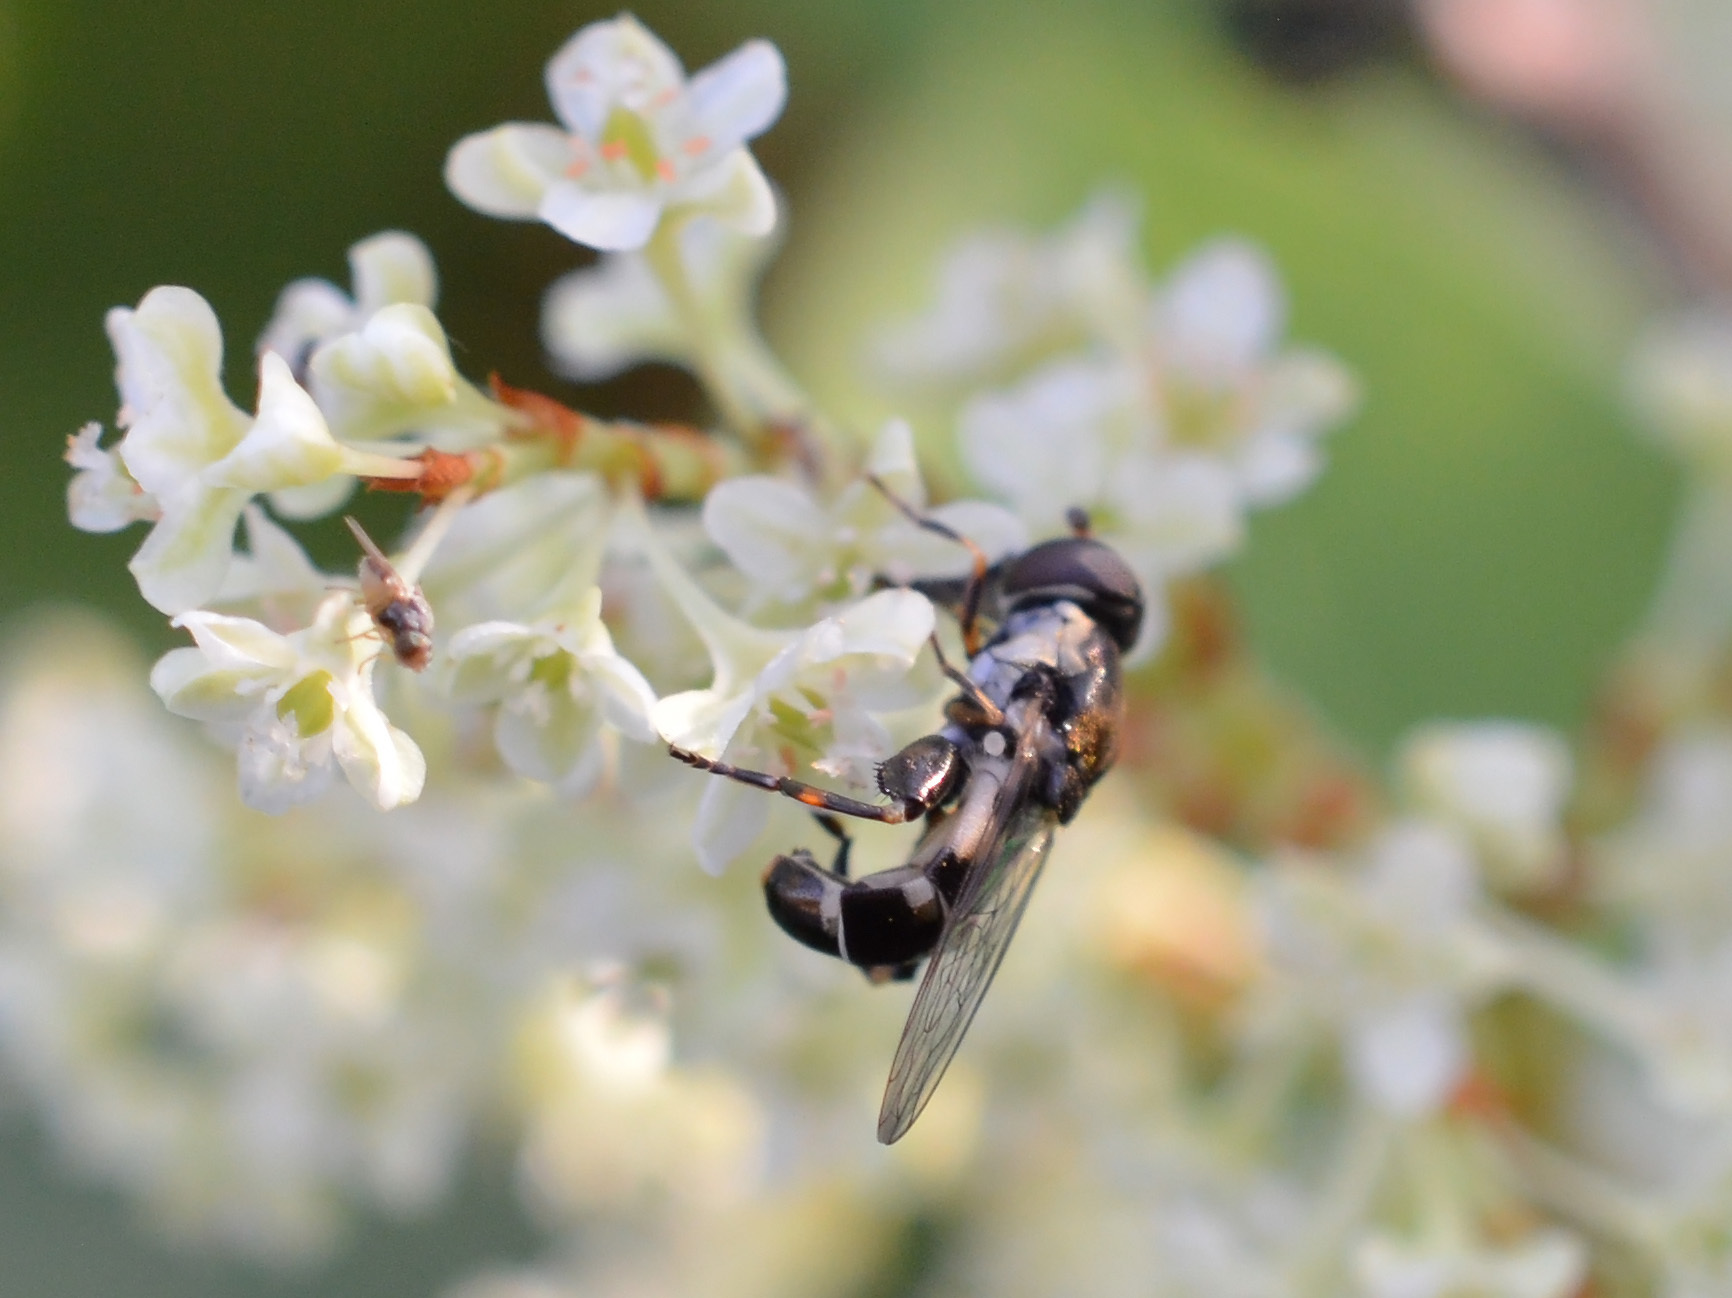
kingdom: Animalia
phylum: Arthropoda
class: Insecta
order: Diptera
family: Syrphidae
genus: Syritta
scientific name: Syritta pipiens
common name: Hover fly
